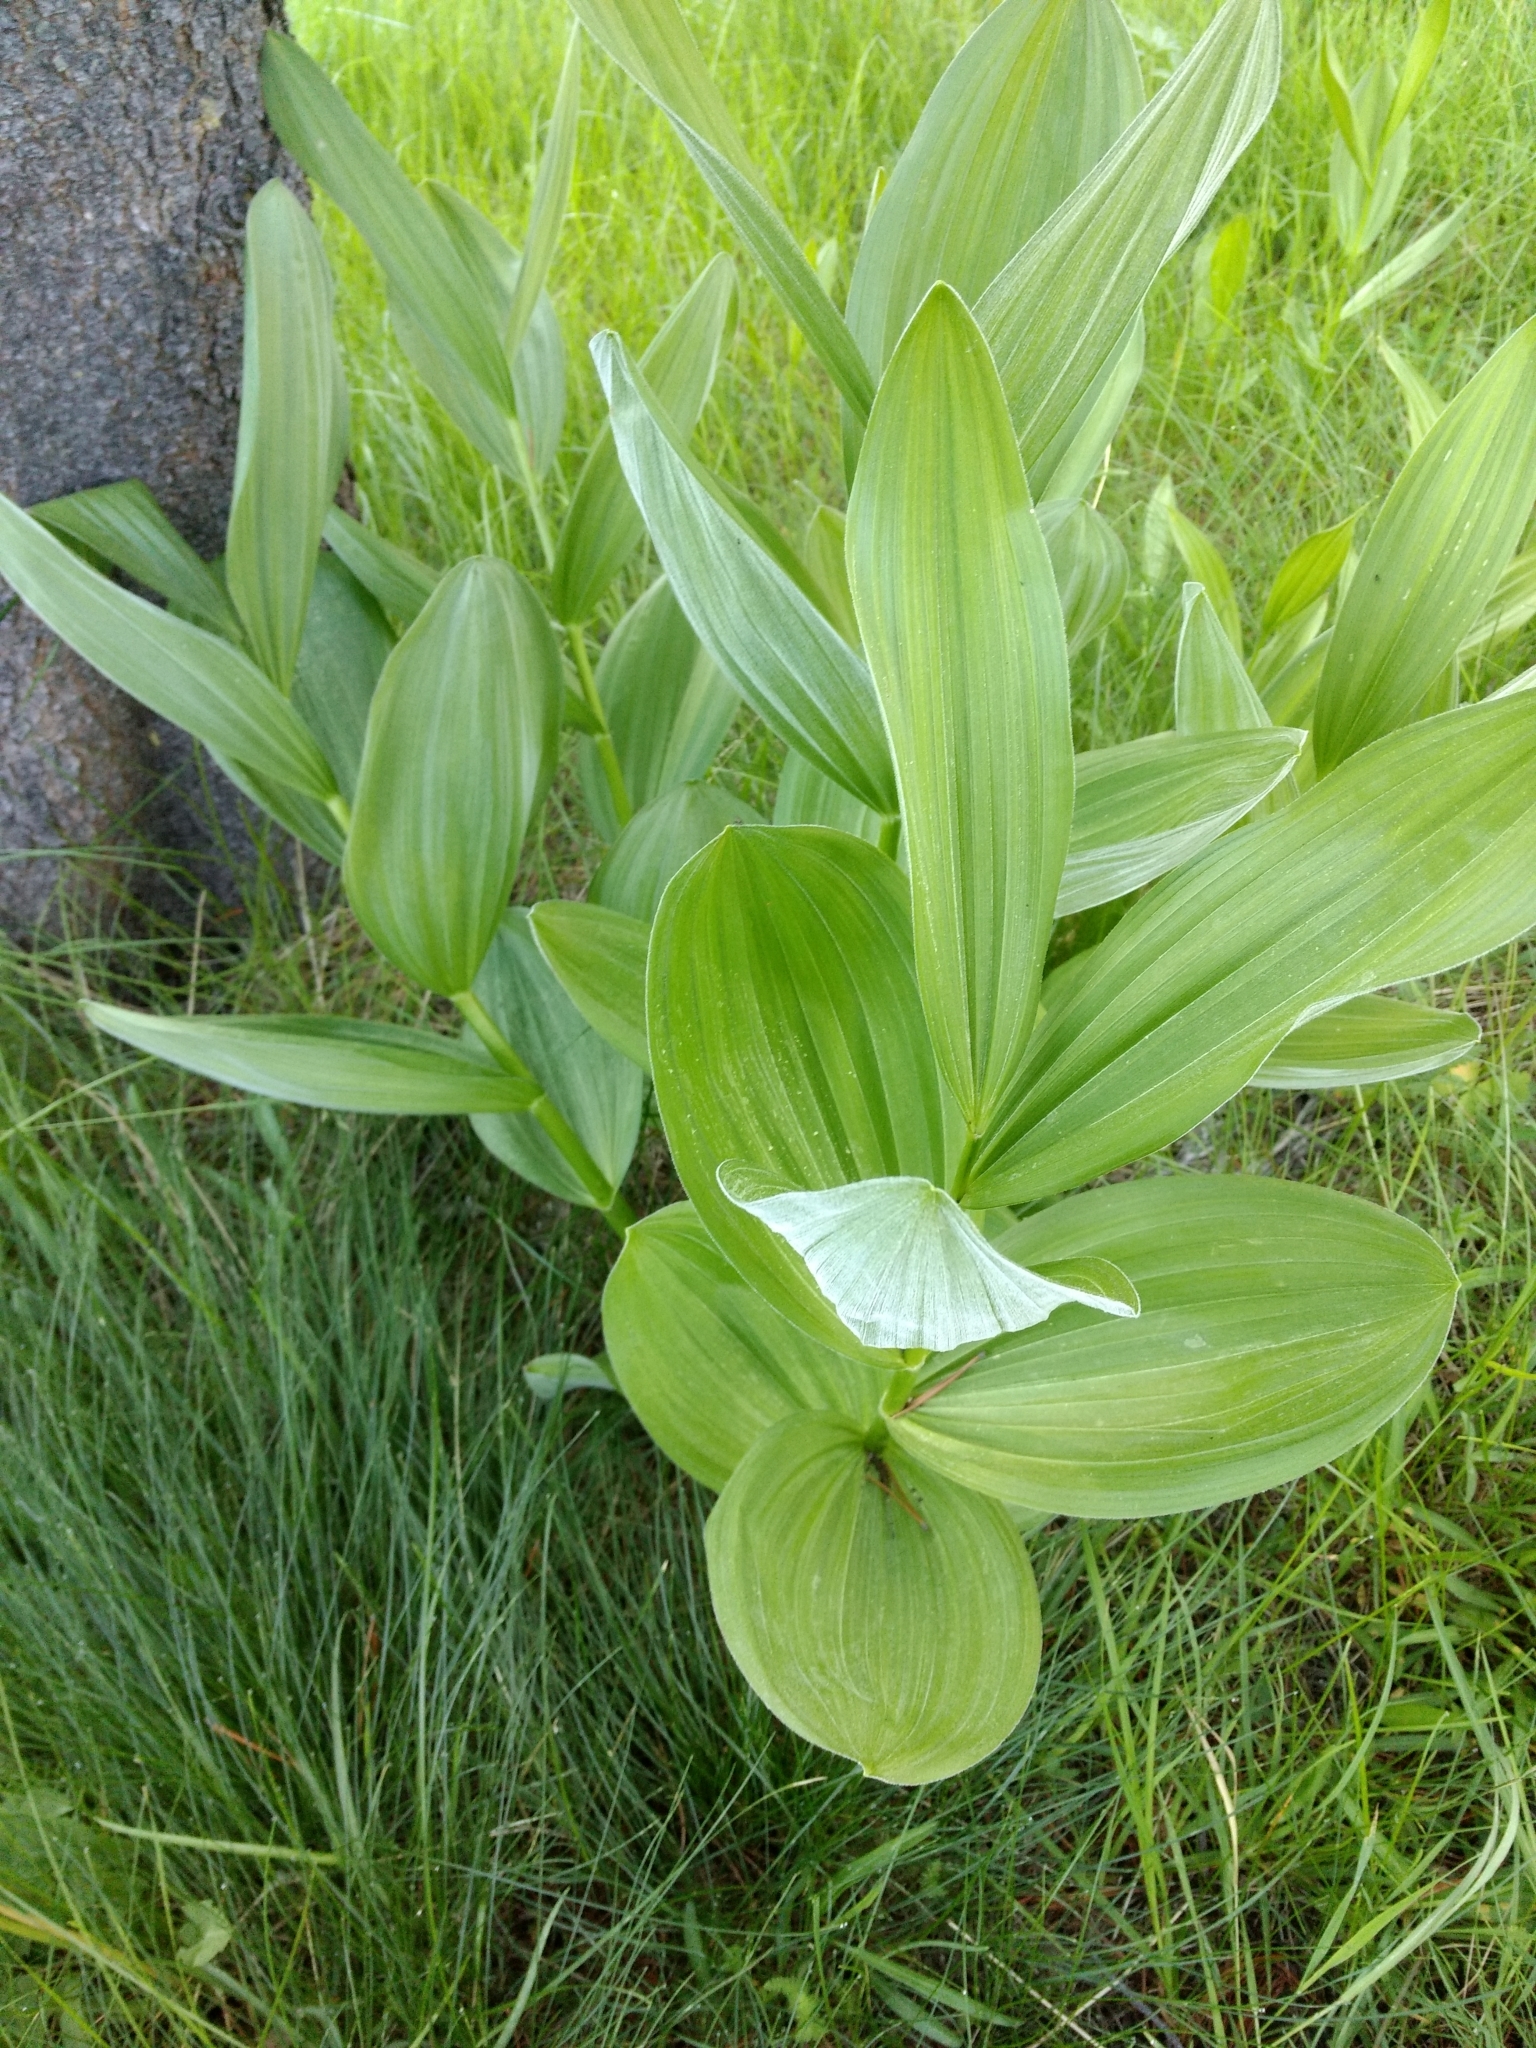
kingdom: Plantae
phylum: Tracheophyta
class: Liliopsida
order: Liliales
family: Melanthiaceae
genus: Veratrum
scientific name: Veratrum californicum
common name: California veratrum
